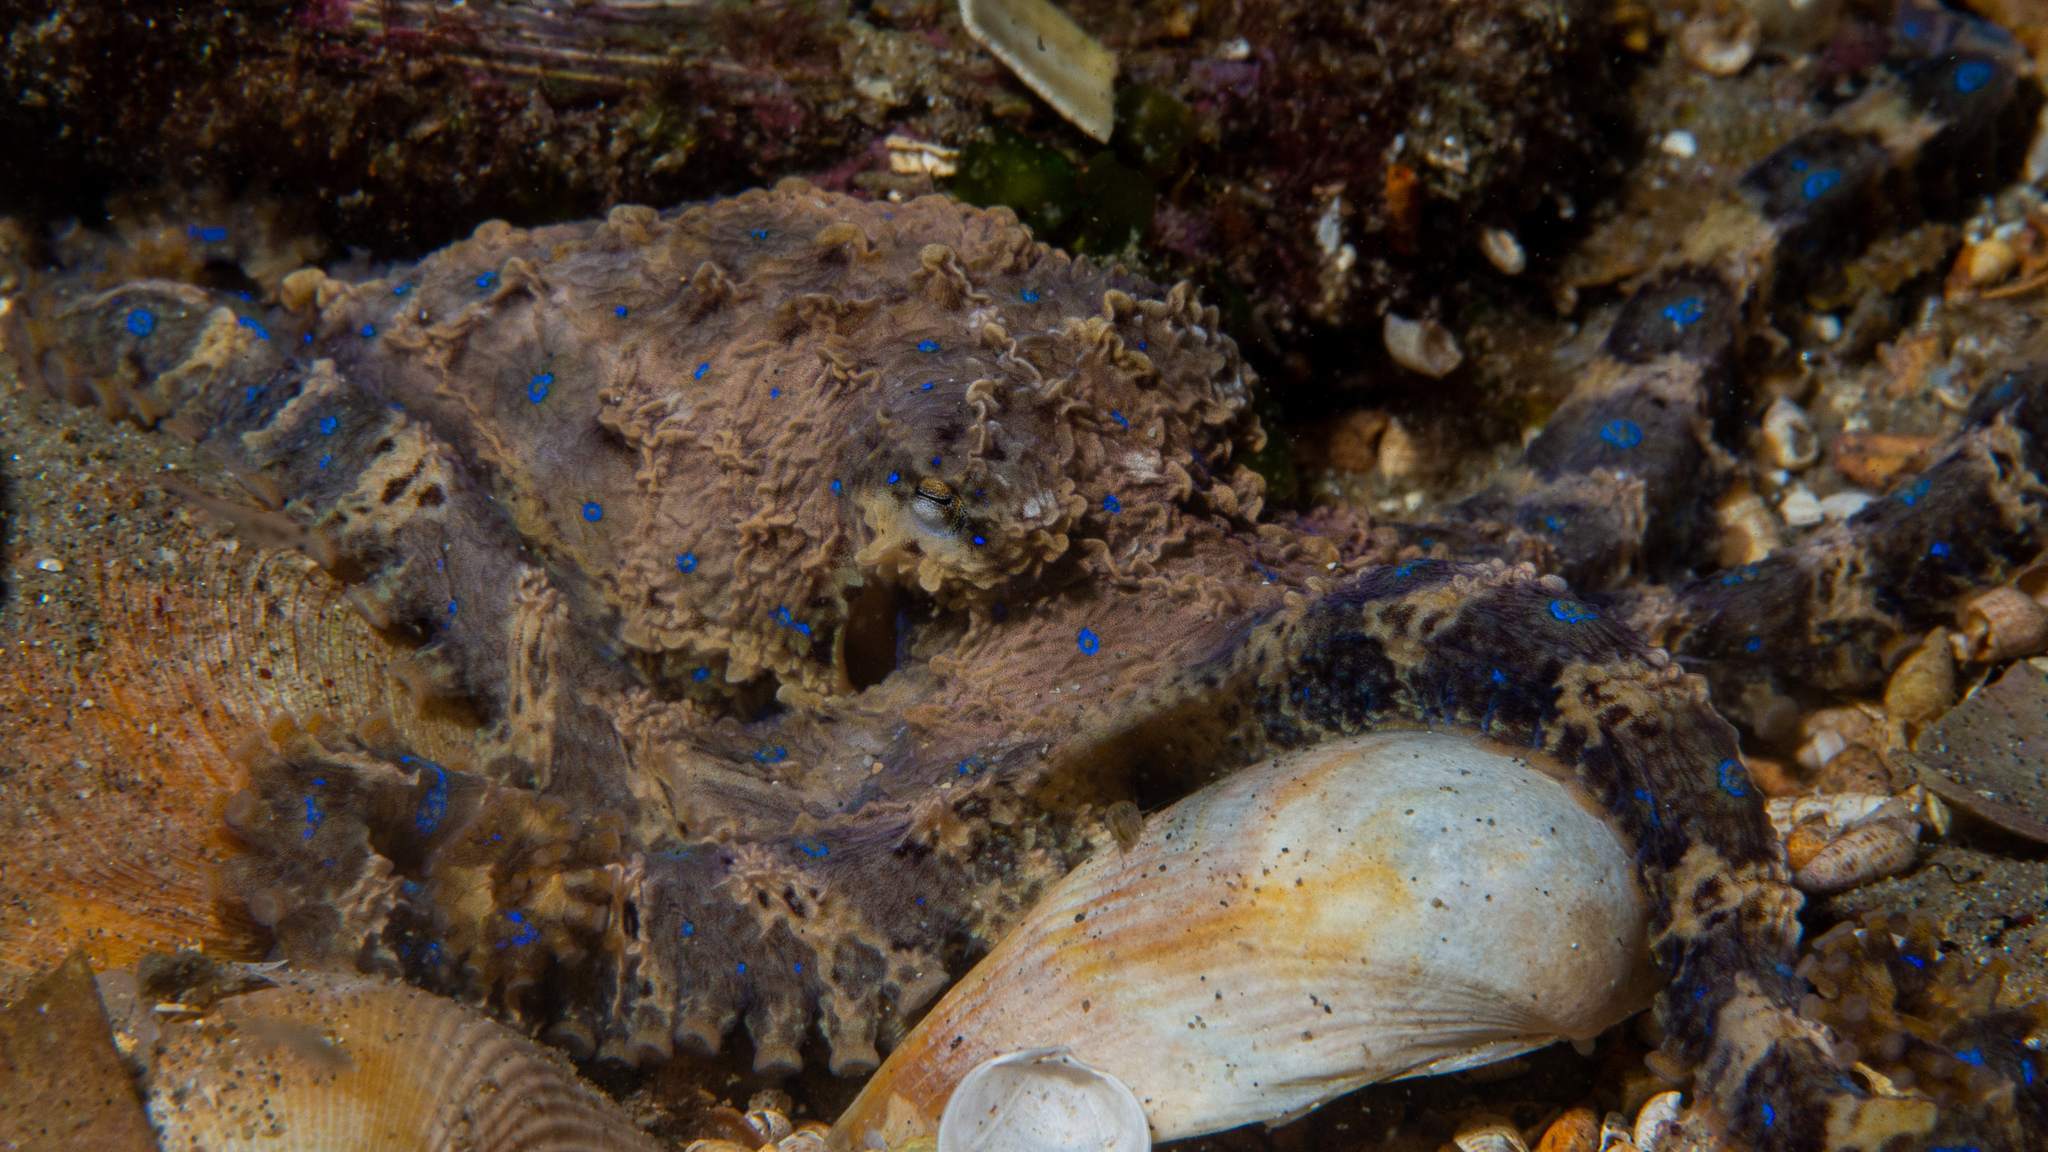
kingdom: Animalia
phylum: Mollusca
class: Cephalopoda
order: Octopoda
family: Octopodidae
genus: Hapalochlaena
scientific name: Hapalochlaena maculosa
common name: Blue-ringed octopus
